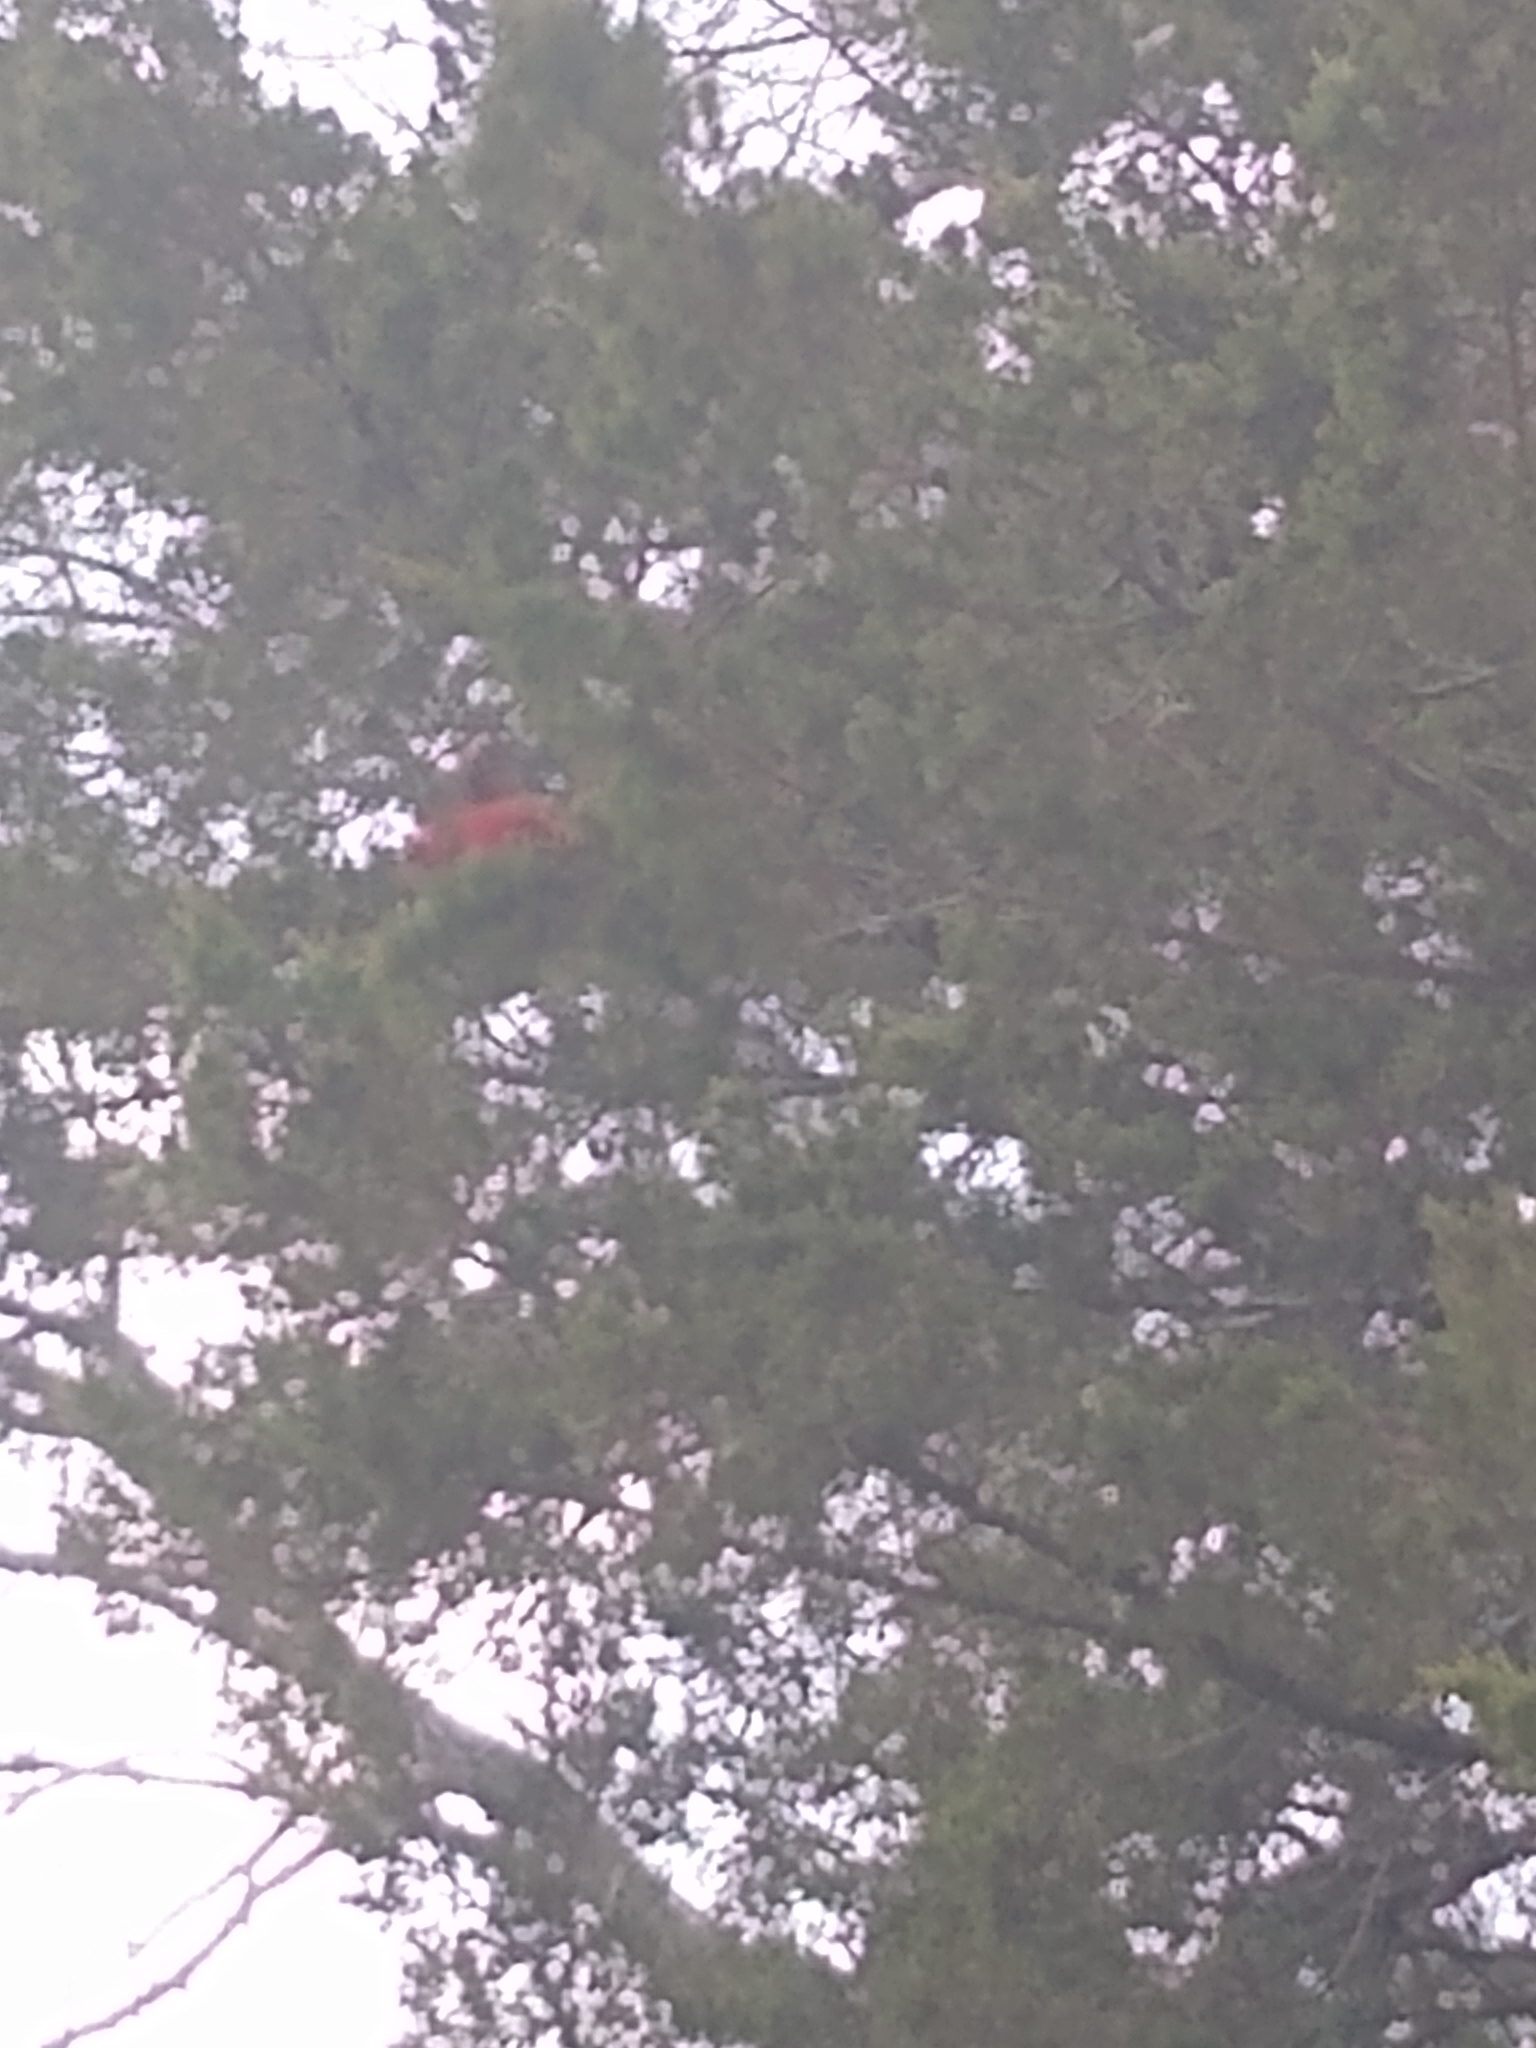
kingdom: Animalia
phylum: Chordata
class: Aves
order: Passeriformes
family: Cardinalidae
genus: Cardinalis
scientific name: Cardinalis cardinalis
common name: Northern cardinal
